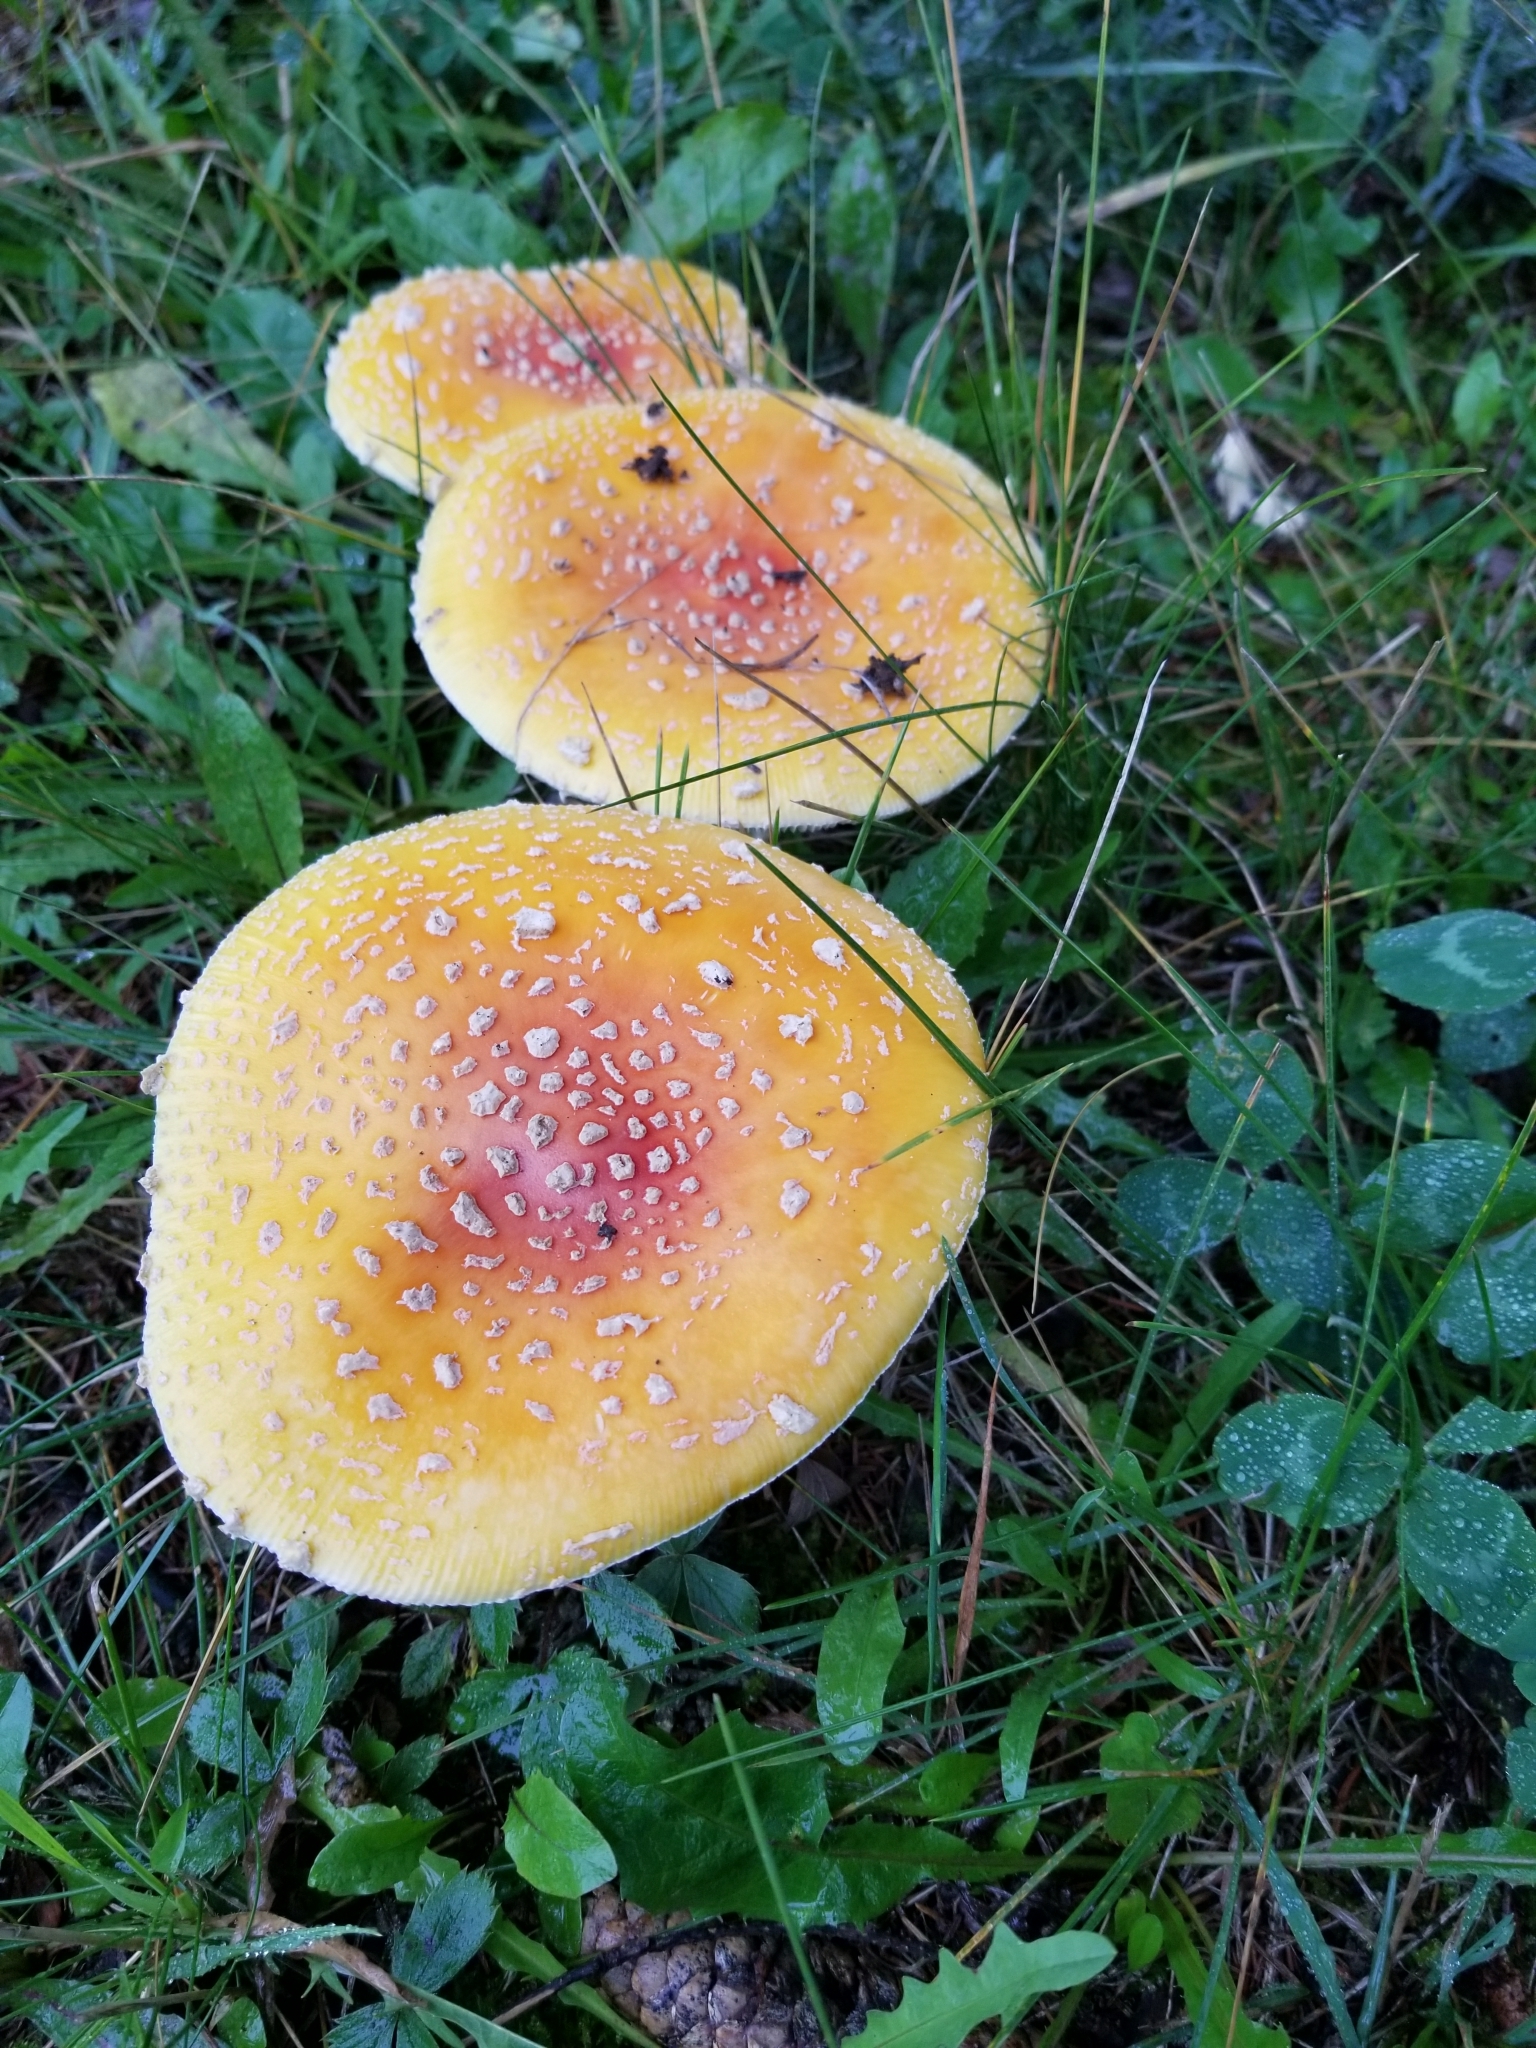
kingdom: Fungi
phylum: Basidiomycota
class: Agaricomycetes
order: Agaricales
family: Amanitaceae
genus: Amanita
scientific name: Amanita muscaria
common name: Fly agaric
